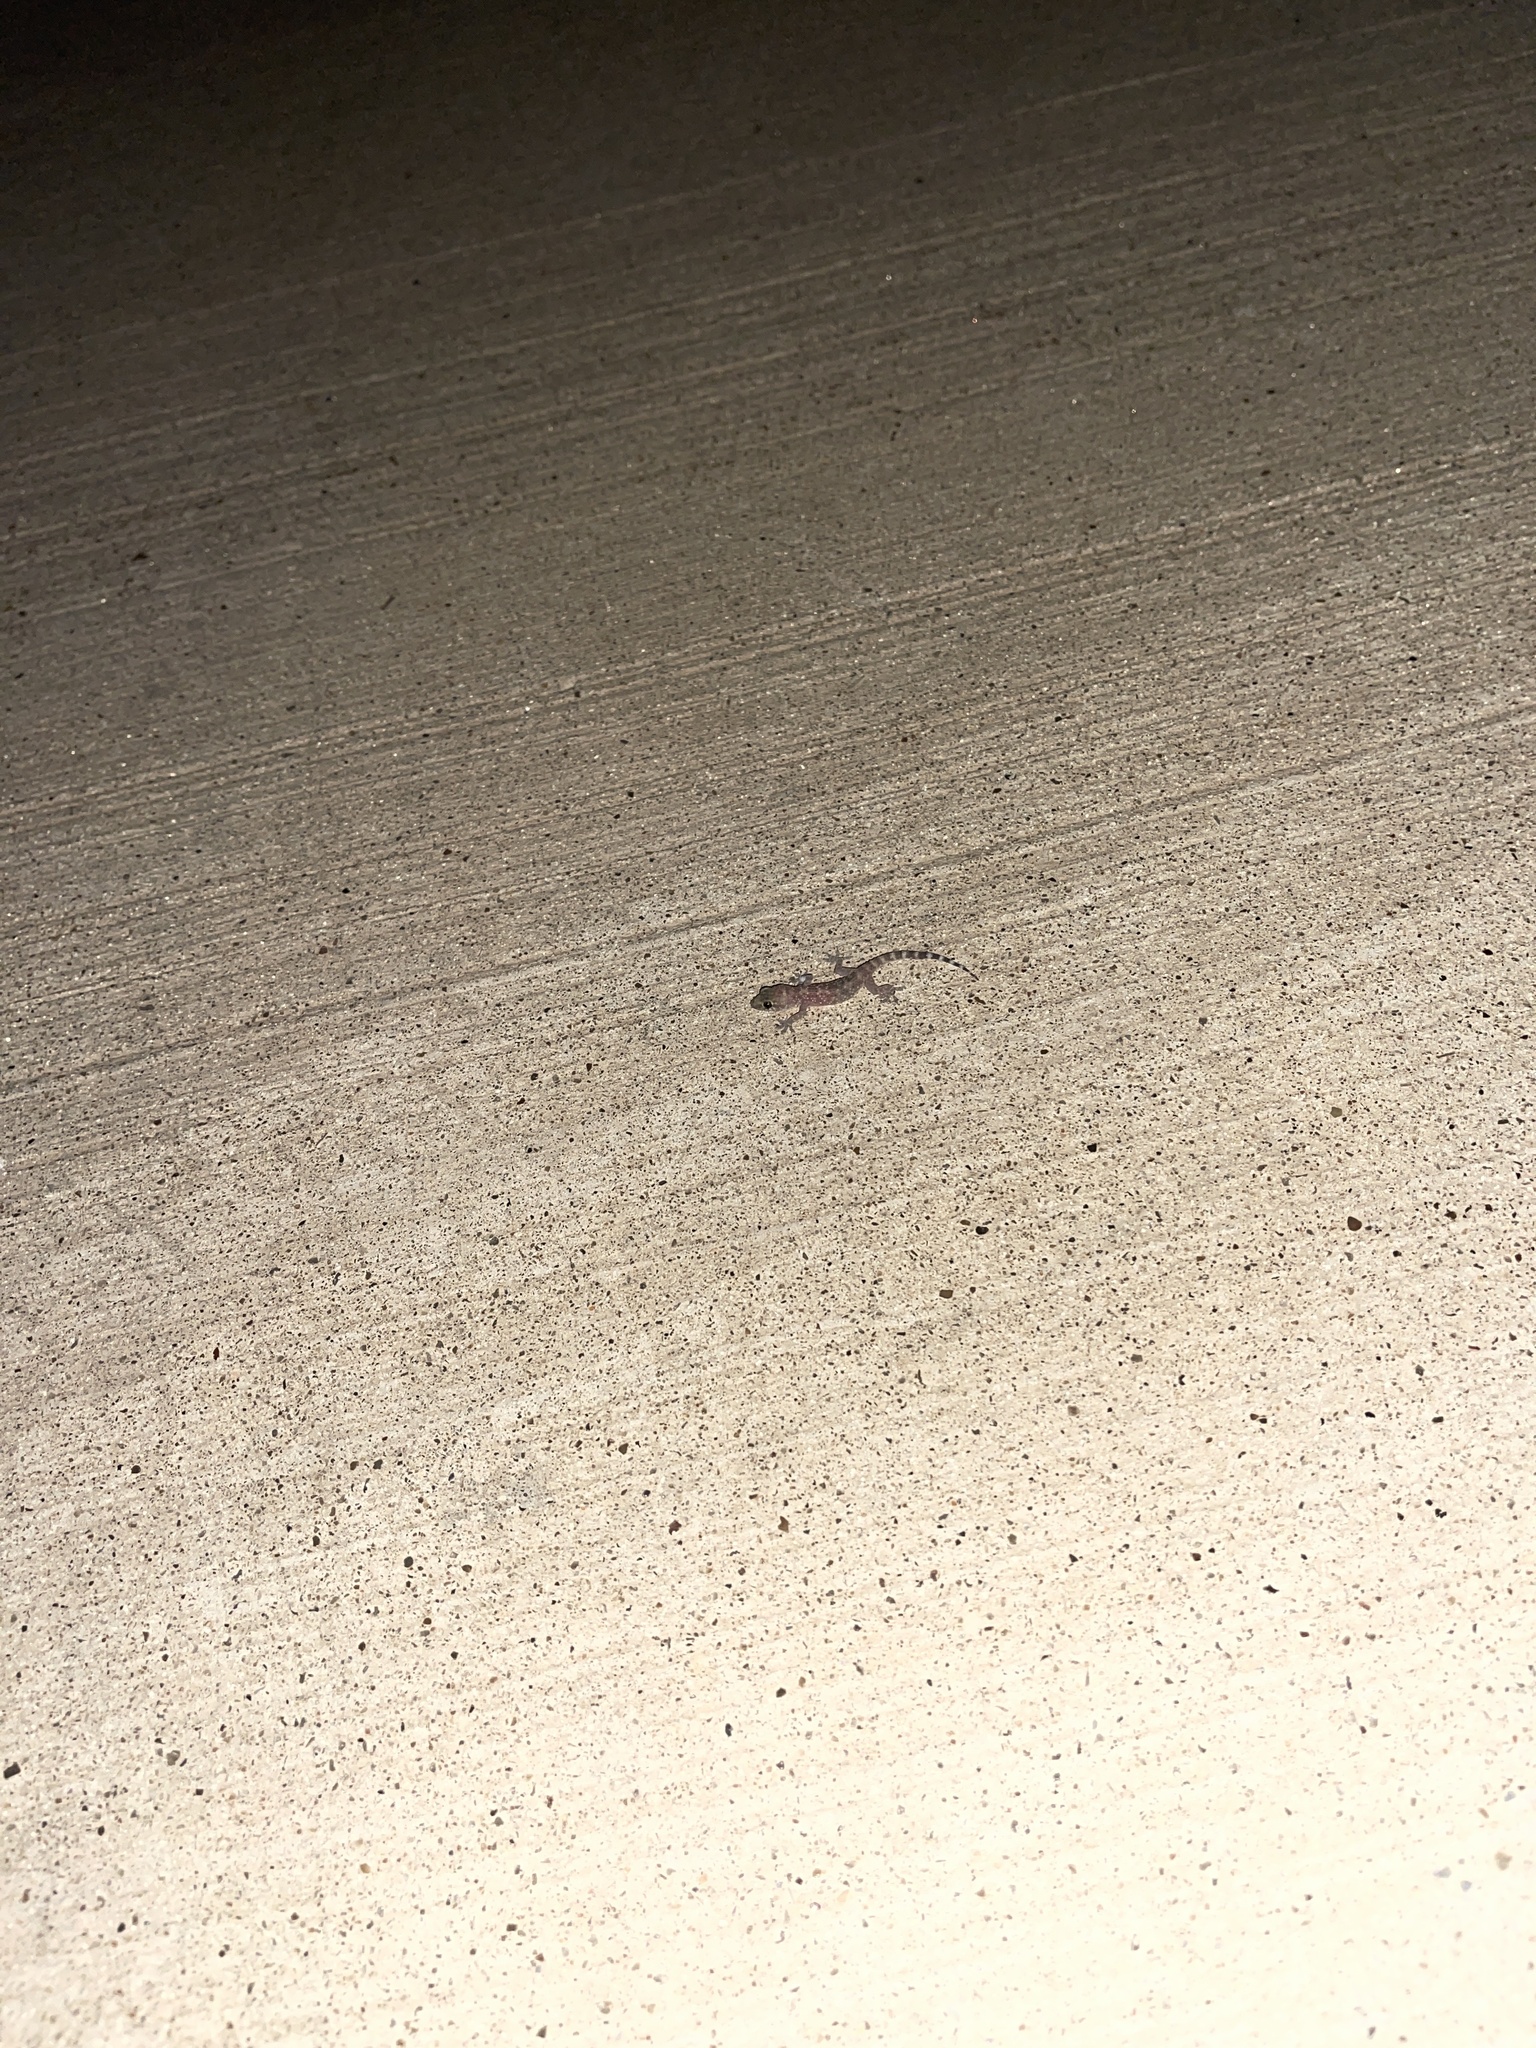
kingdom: Animalia
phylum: Chordata
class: Squamata
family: Gekkonidae
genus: Hemidactylus
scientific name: Hemidactylus turcicus
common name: Turkish gecko
